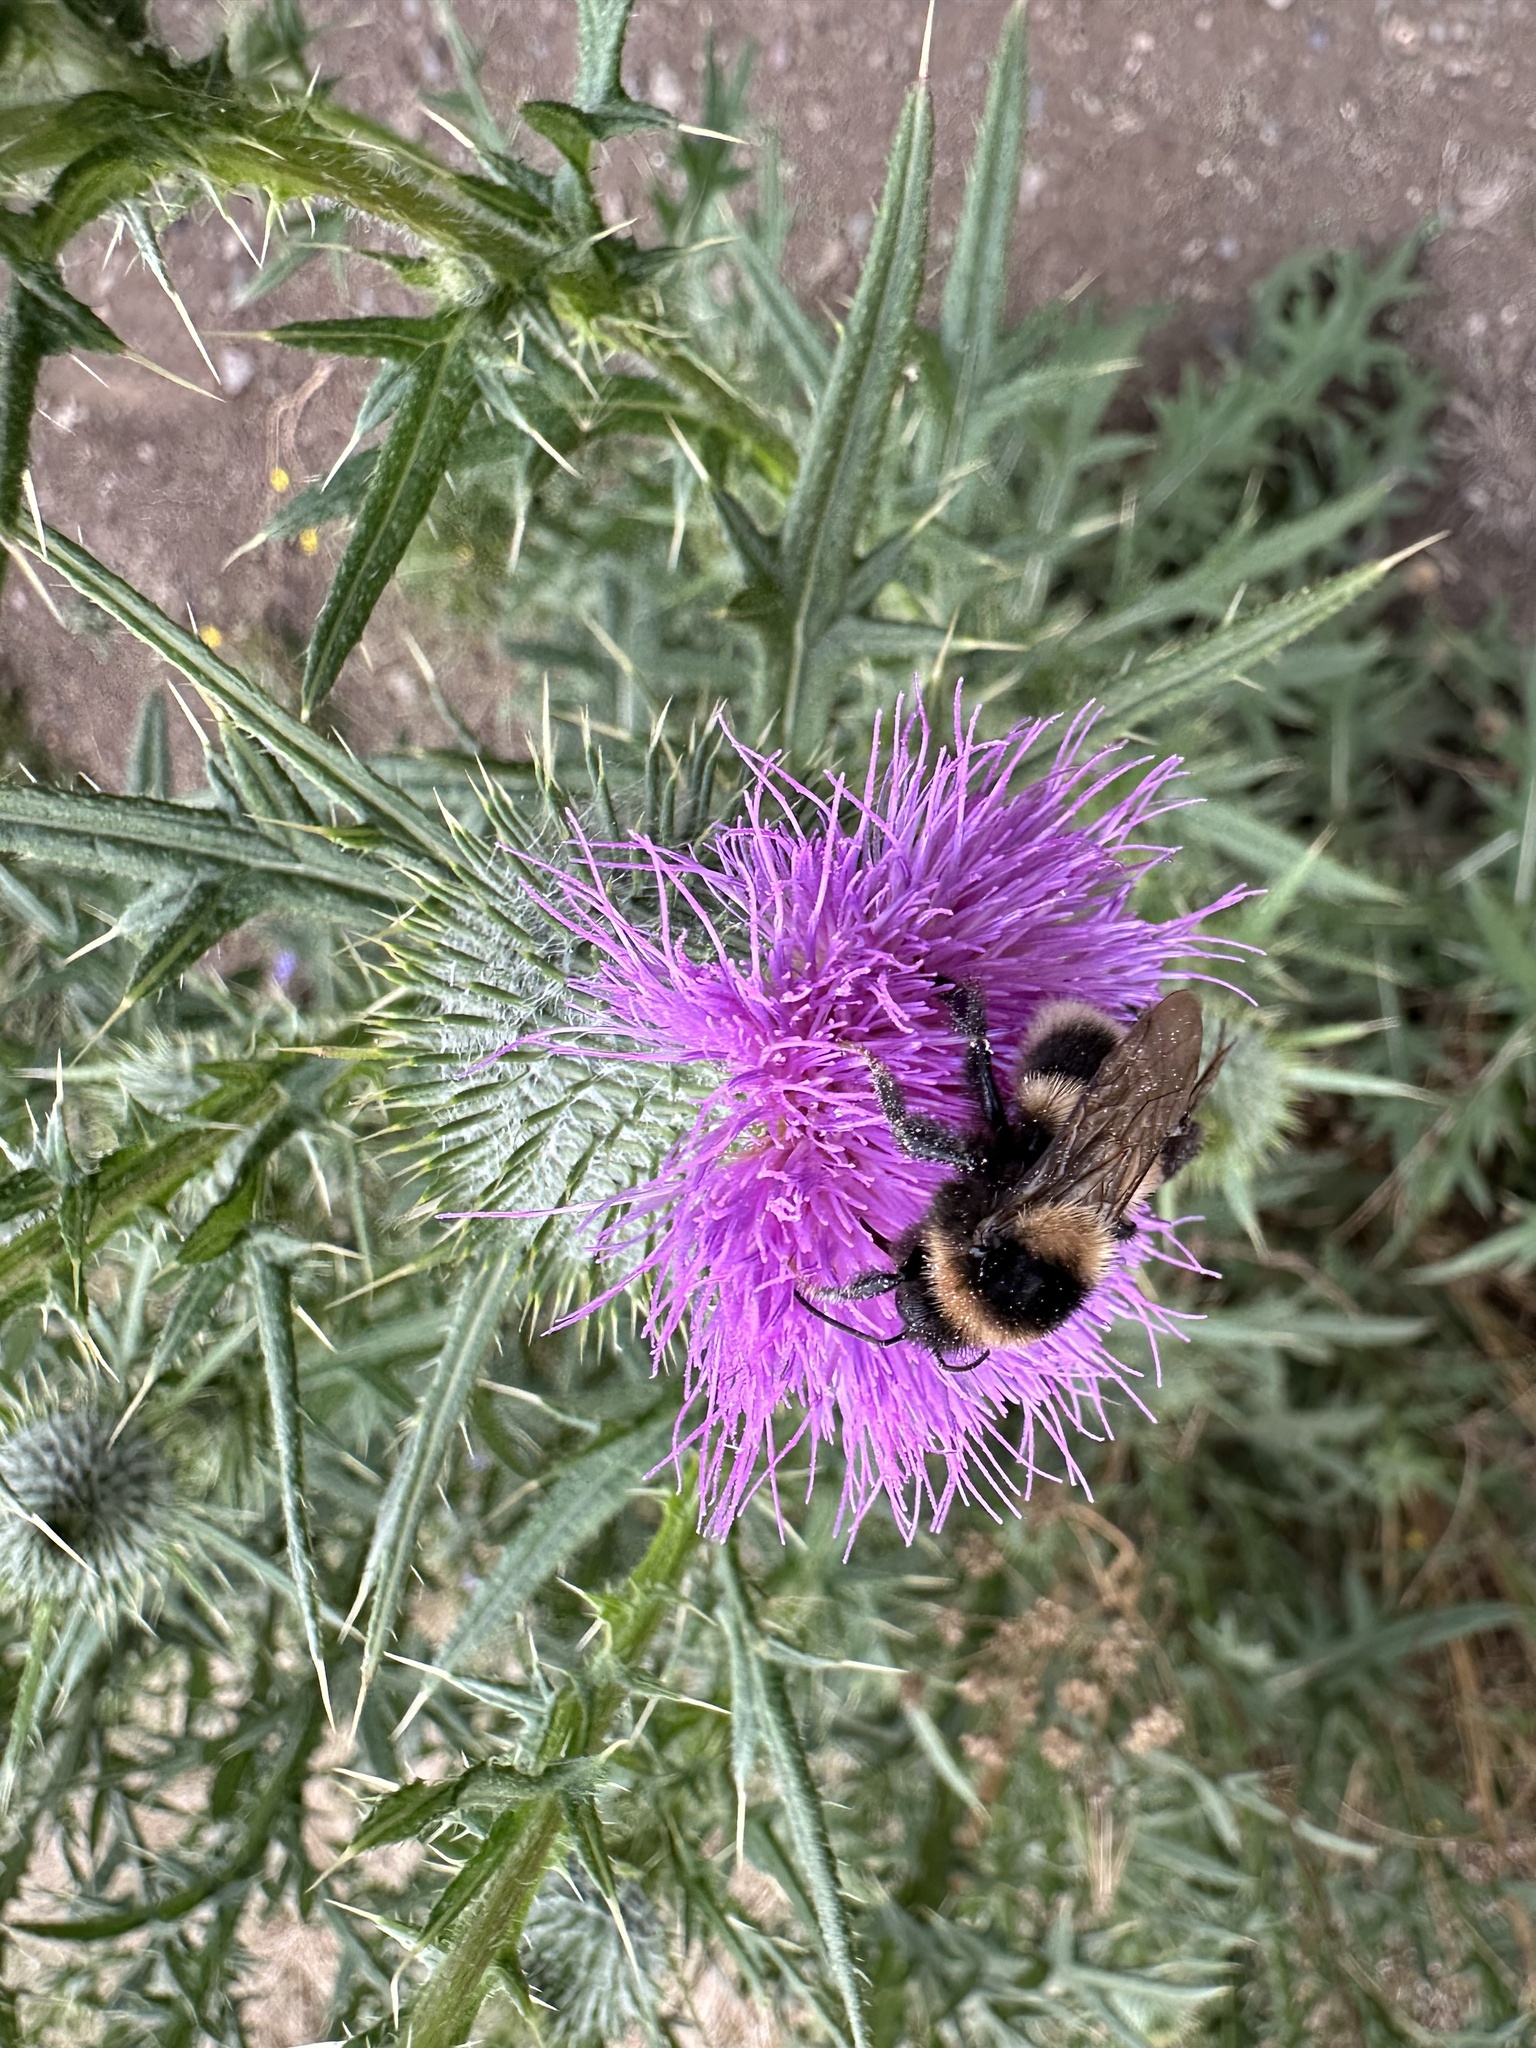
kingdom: Animalia
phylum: Arthropoda
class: Insecta
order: Hymenoptera
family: Apidae
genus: Bombus
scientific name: Bombus ruderatus
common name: Large garden bumblebee
